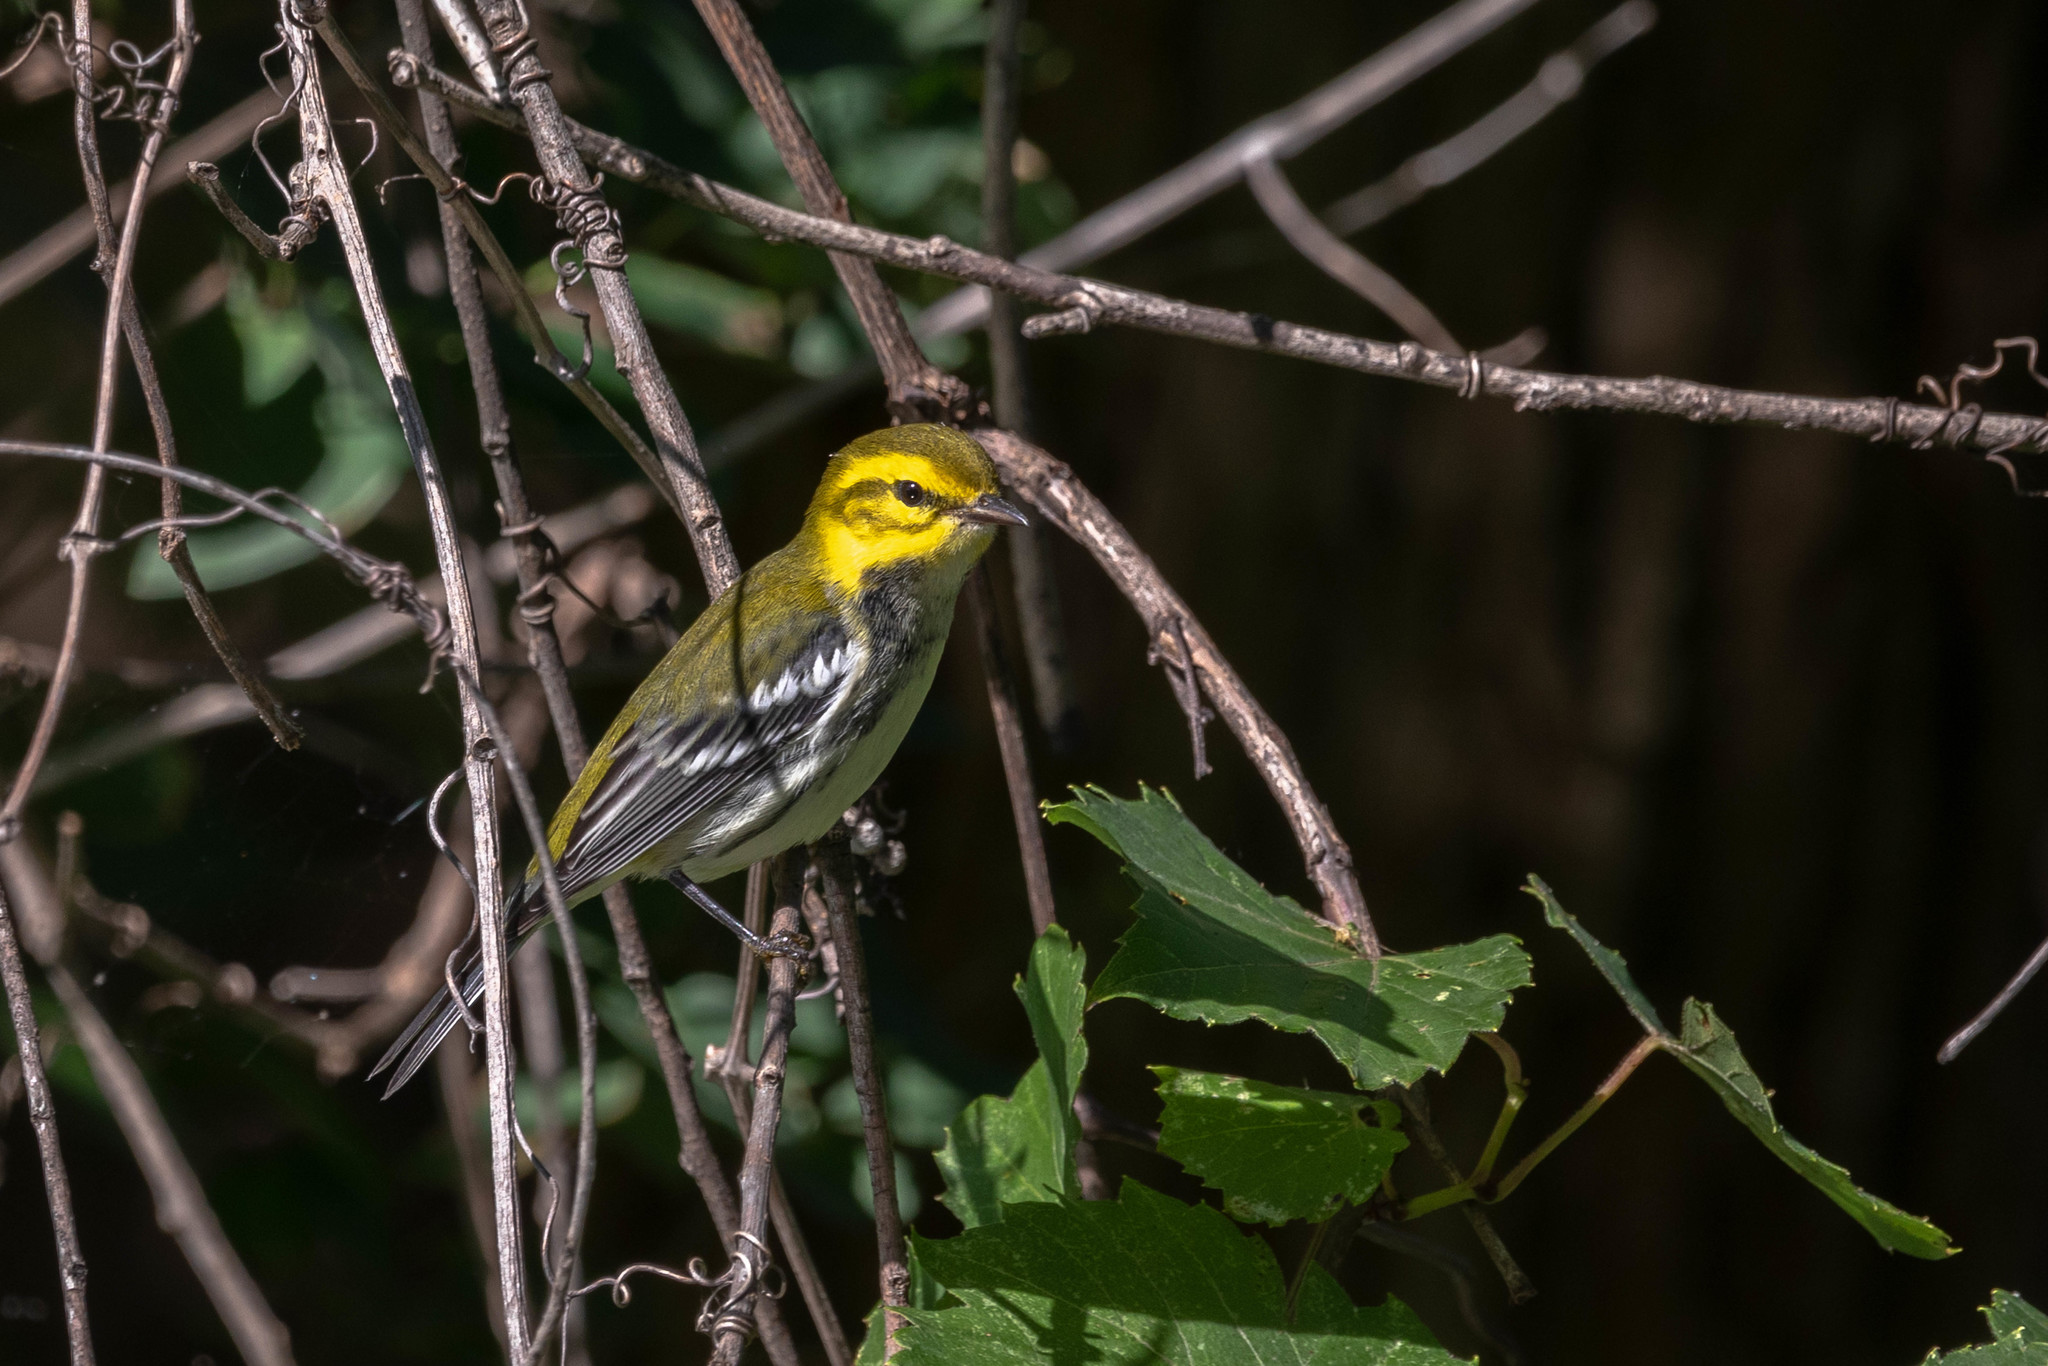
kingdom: Animalia
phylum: Chordata
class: Aves
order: Passeriformes
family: Parulidae
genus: Setophaga
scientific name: Setophaga virens
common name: Black-throated green warbler
